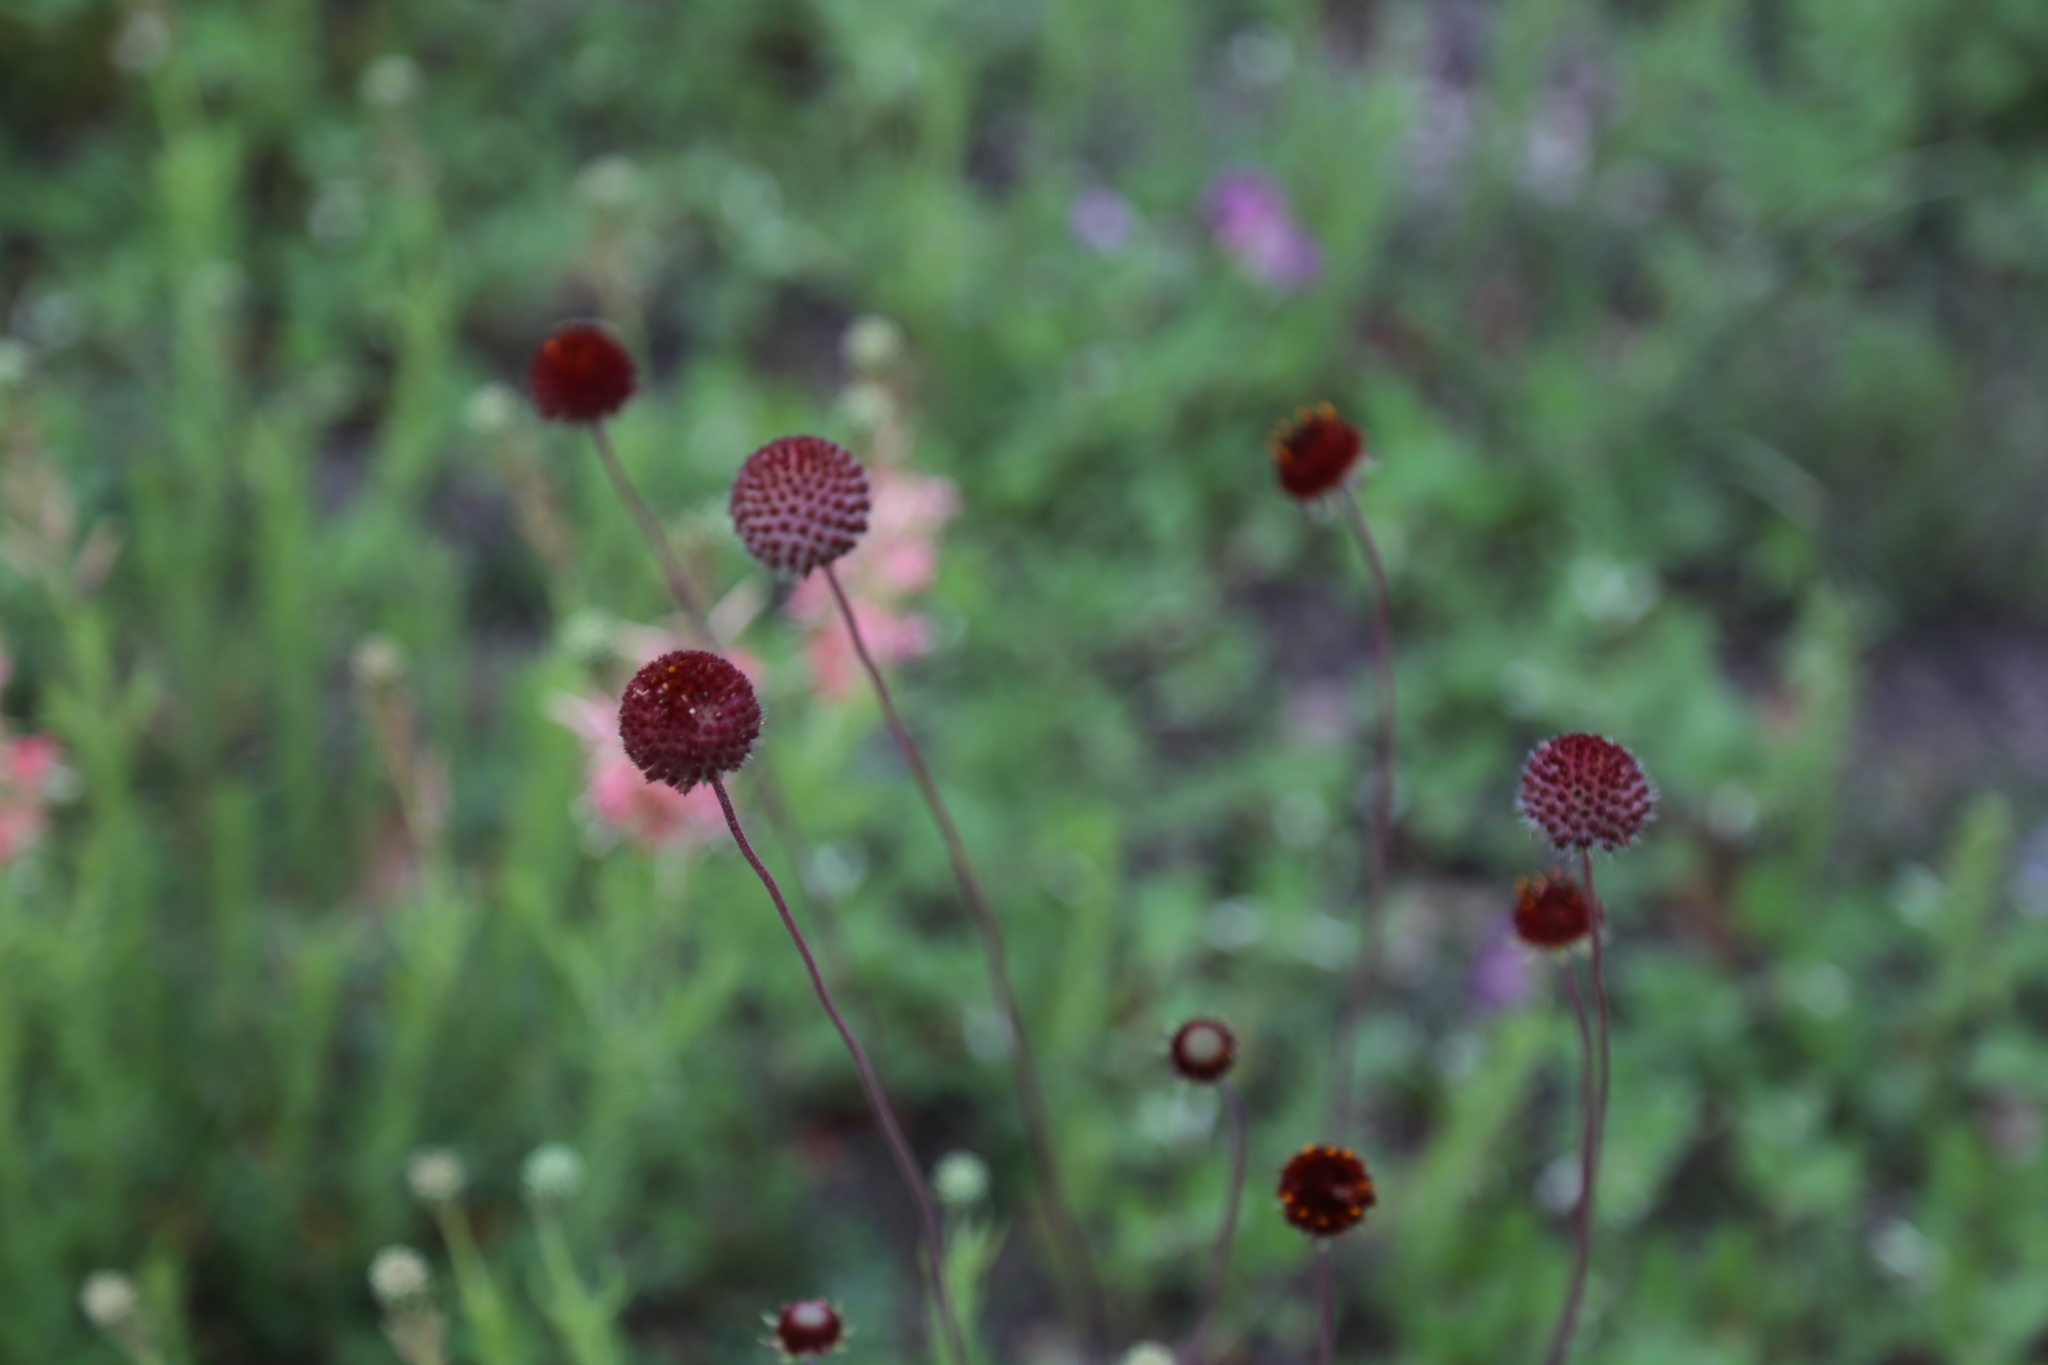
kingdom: Plantae
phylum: Tracheophyta
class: Magnoliopsida
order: Asterales
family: Asteraceae
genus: Gaillardia
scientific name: Gaillardia suavis
